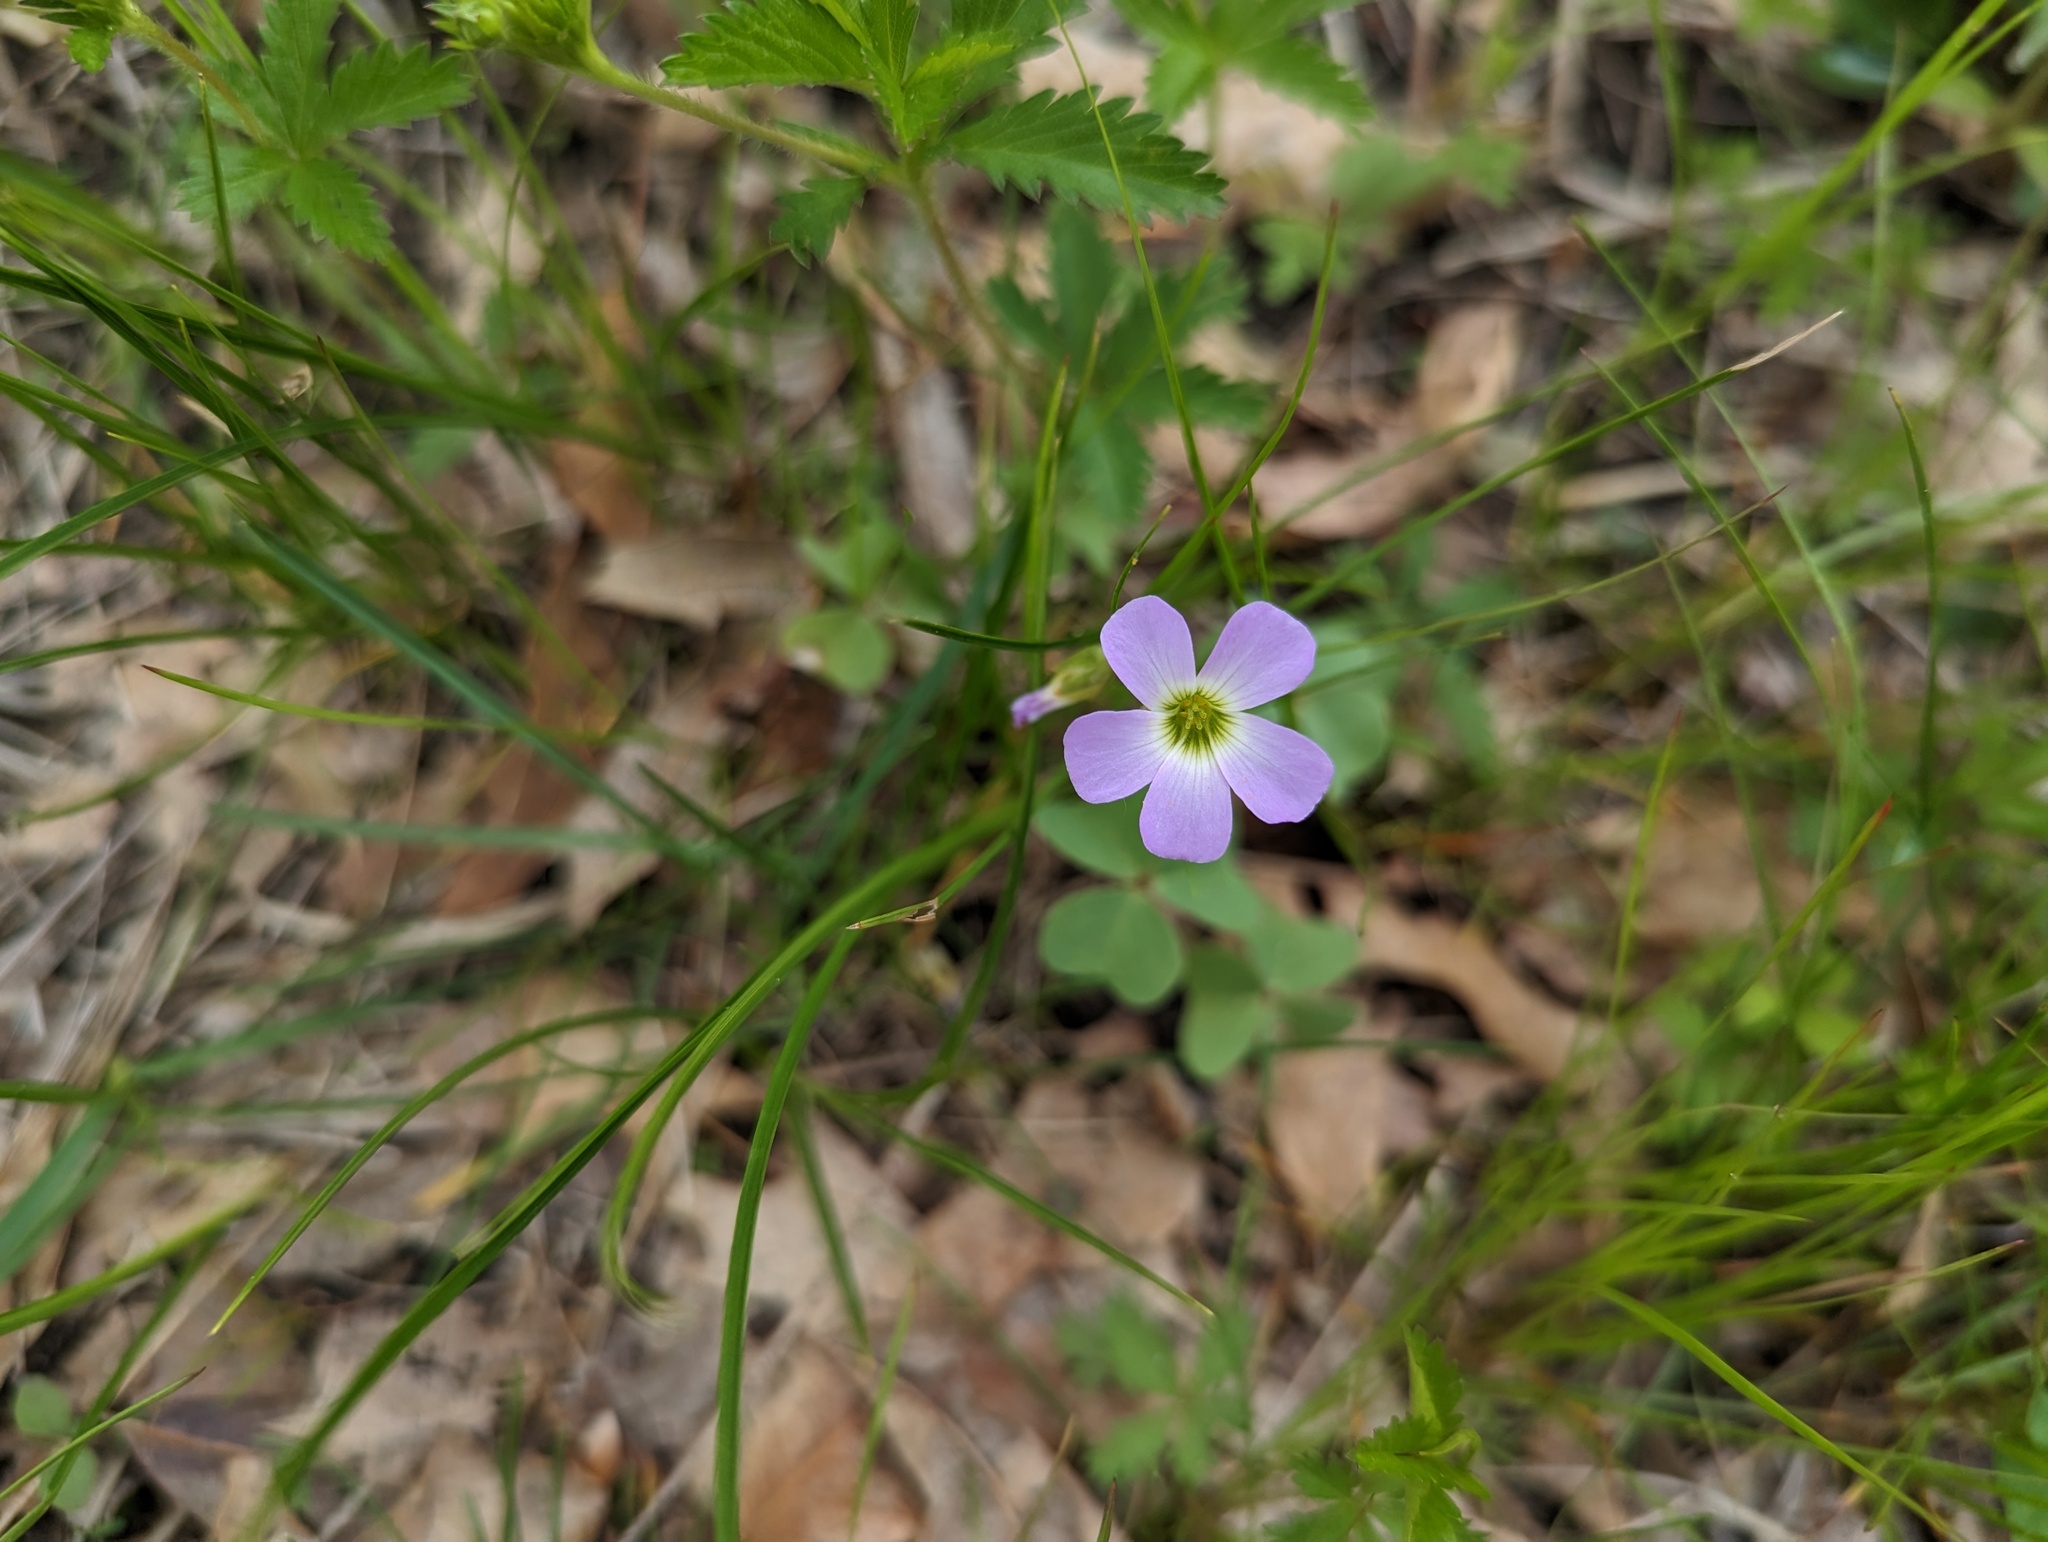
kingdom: Plantae
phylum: Tracheophyta
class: Magnoliopsida
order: Oxalidales
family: Oxalidaceae
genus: Oxalis
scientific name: Oxalis violacea
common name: Violet wood-sorrel
